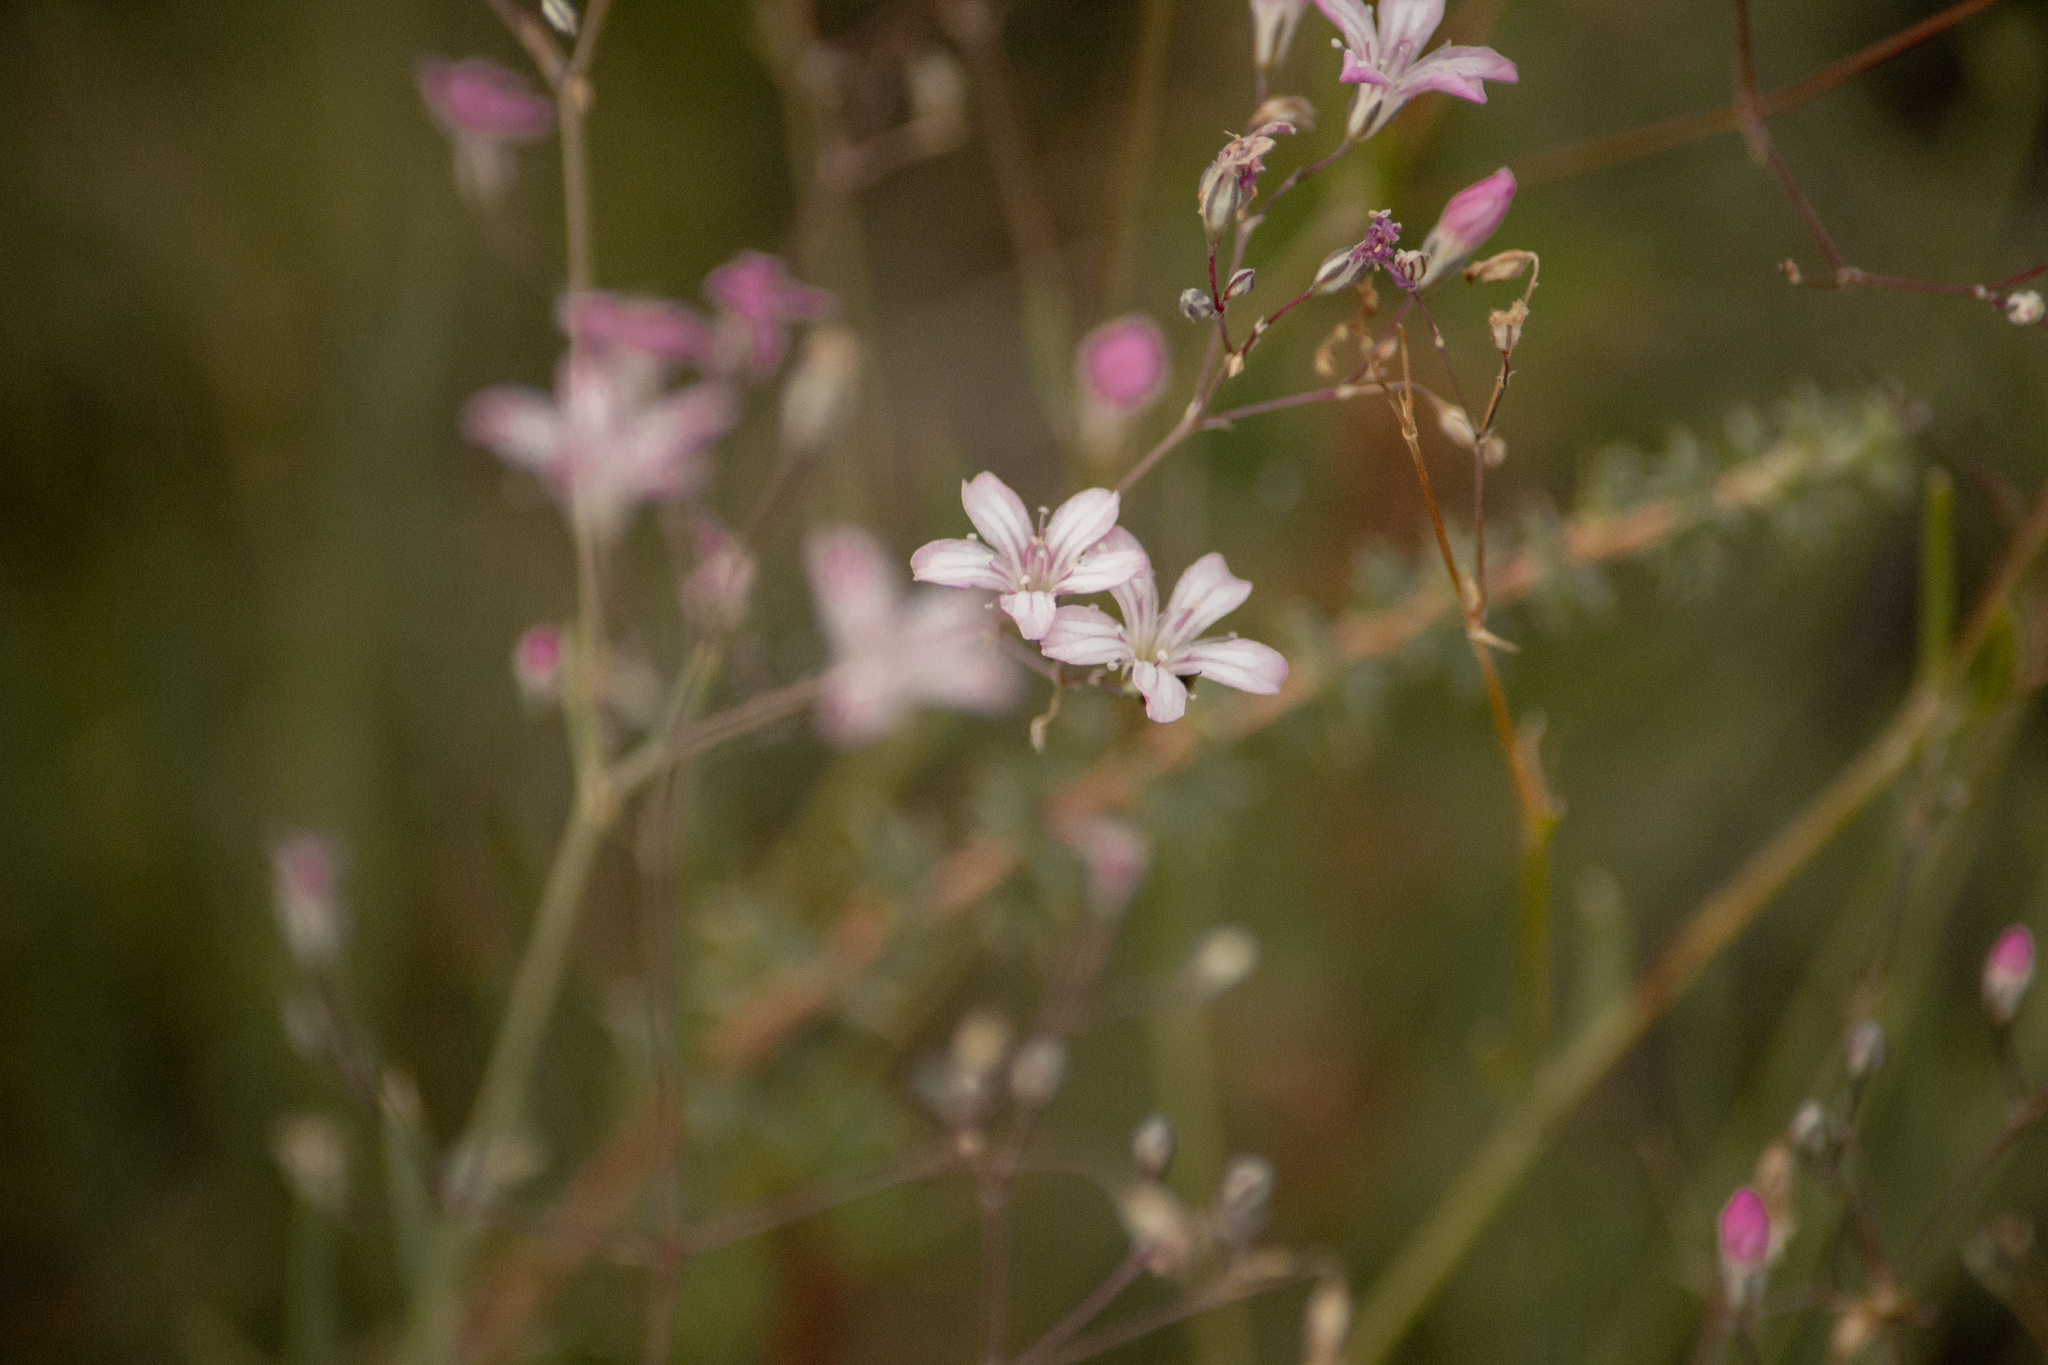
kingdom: Plantae
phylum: Tracheophyta
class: Magnoliopsida
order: Caryophyllales
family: Caryophyllaceae
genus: Gypsophila
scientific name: Gypsophila patrinii
